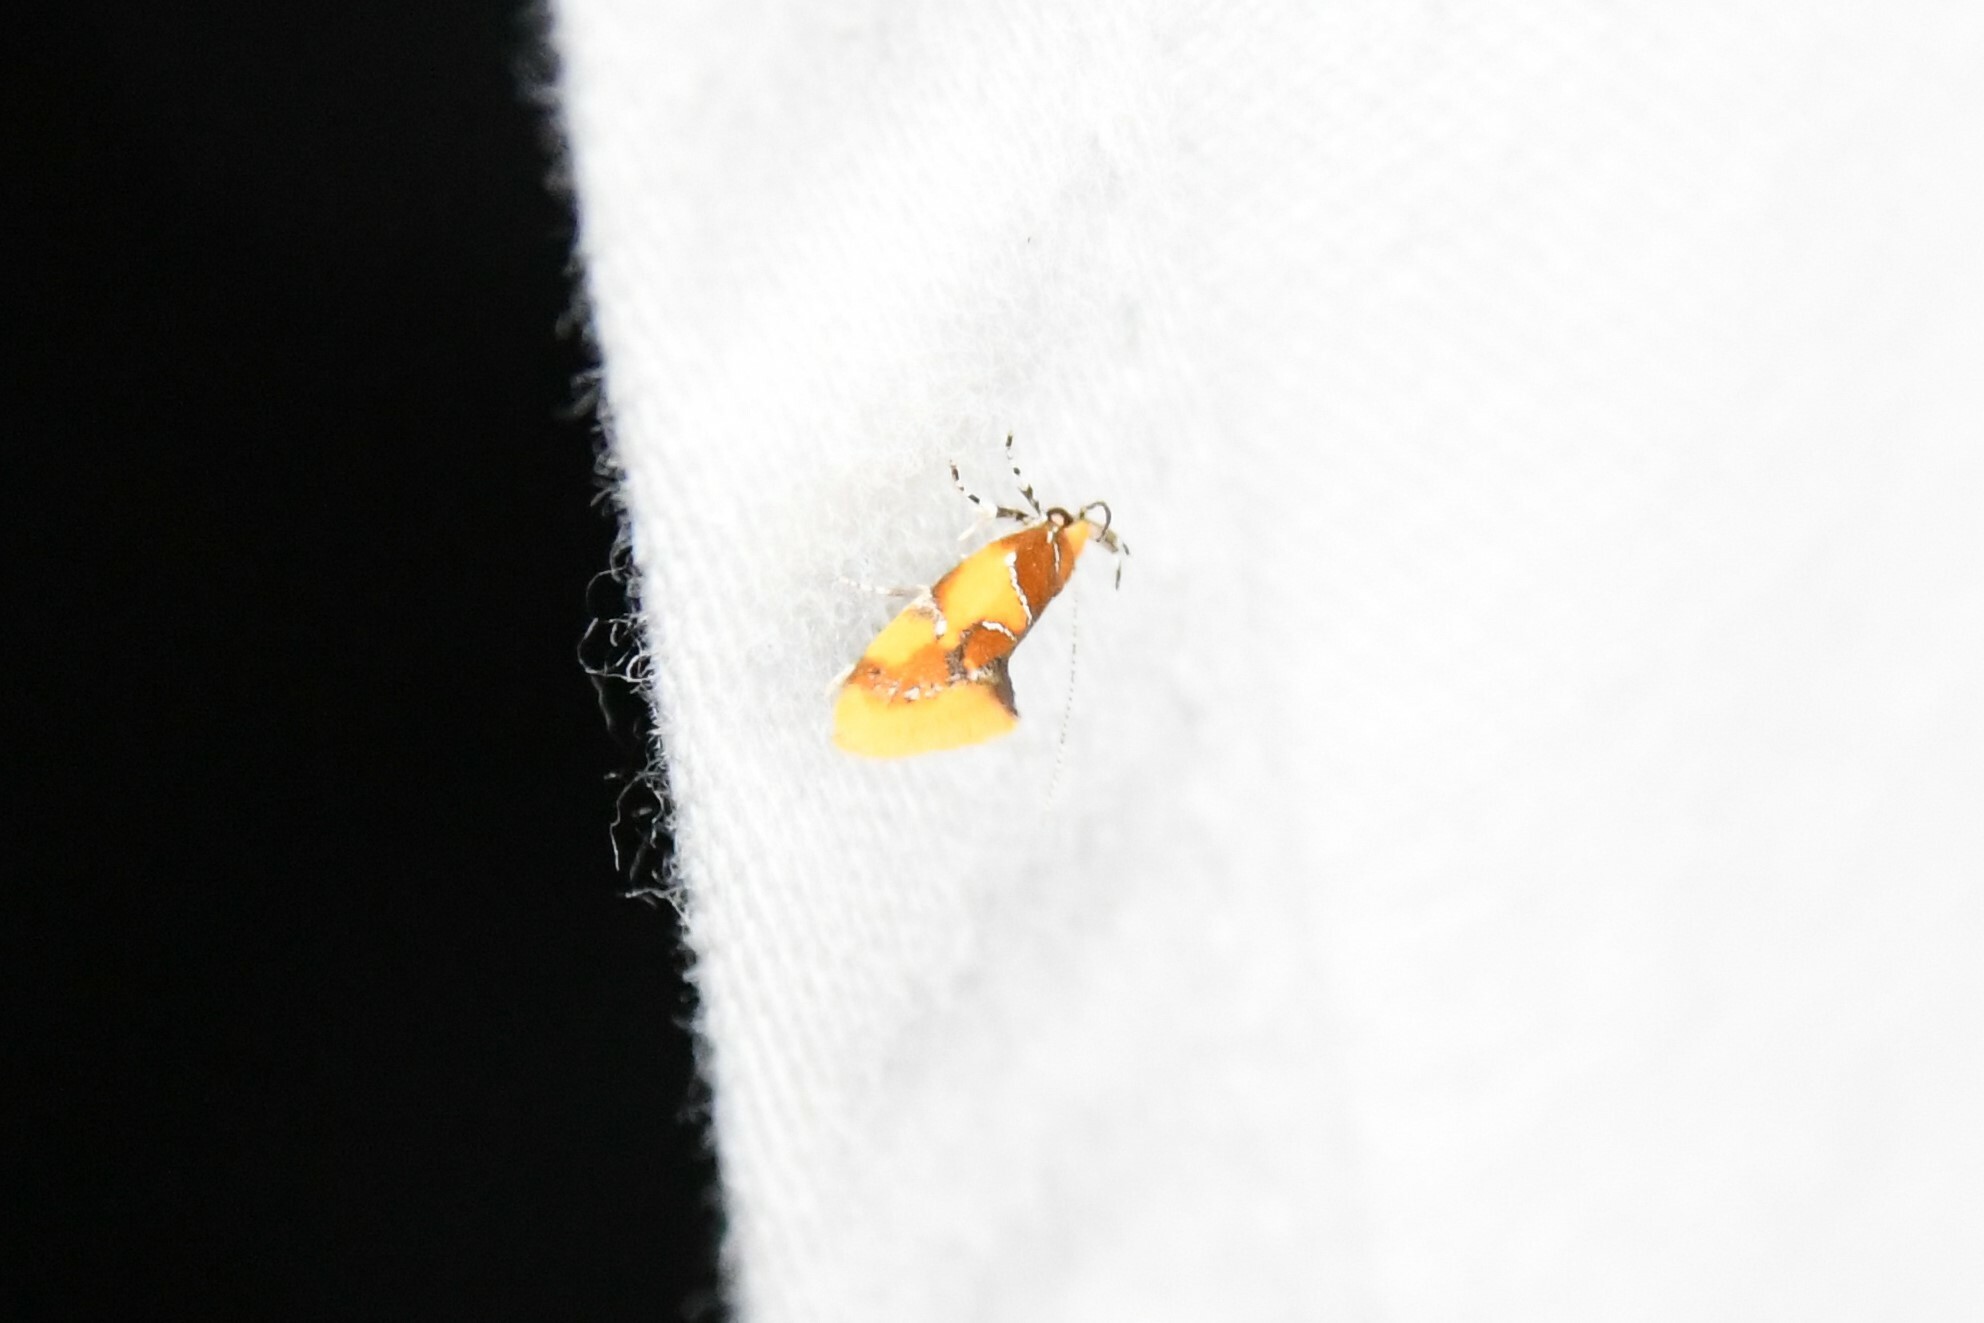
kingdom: Animalia
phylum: Arthropoda
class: Insecta
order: Lepidoptera
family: Oecophoridae
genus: Callima
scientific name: Callima argenticinctella
